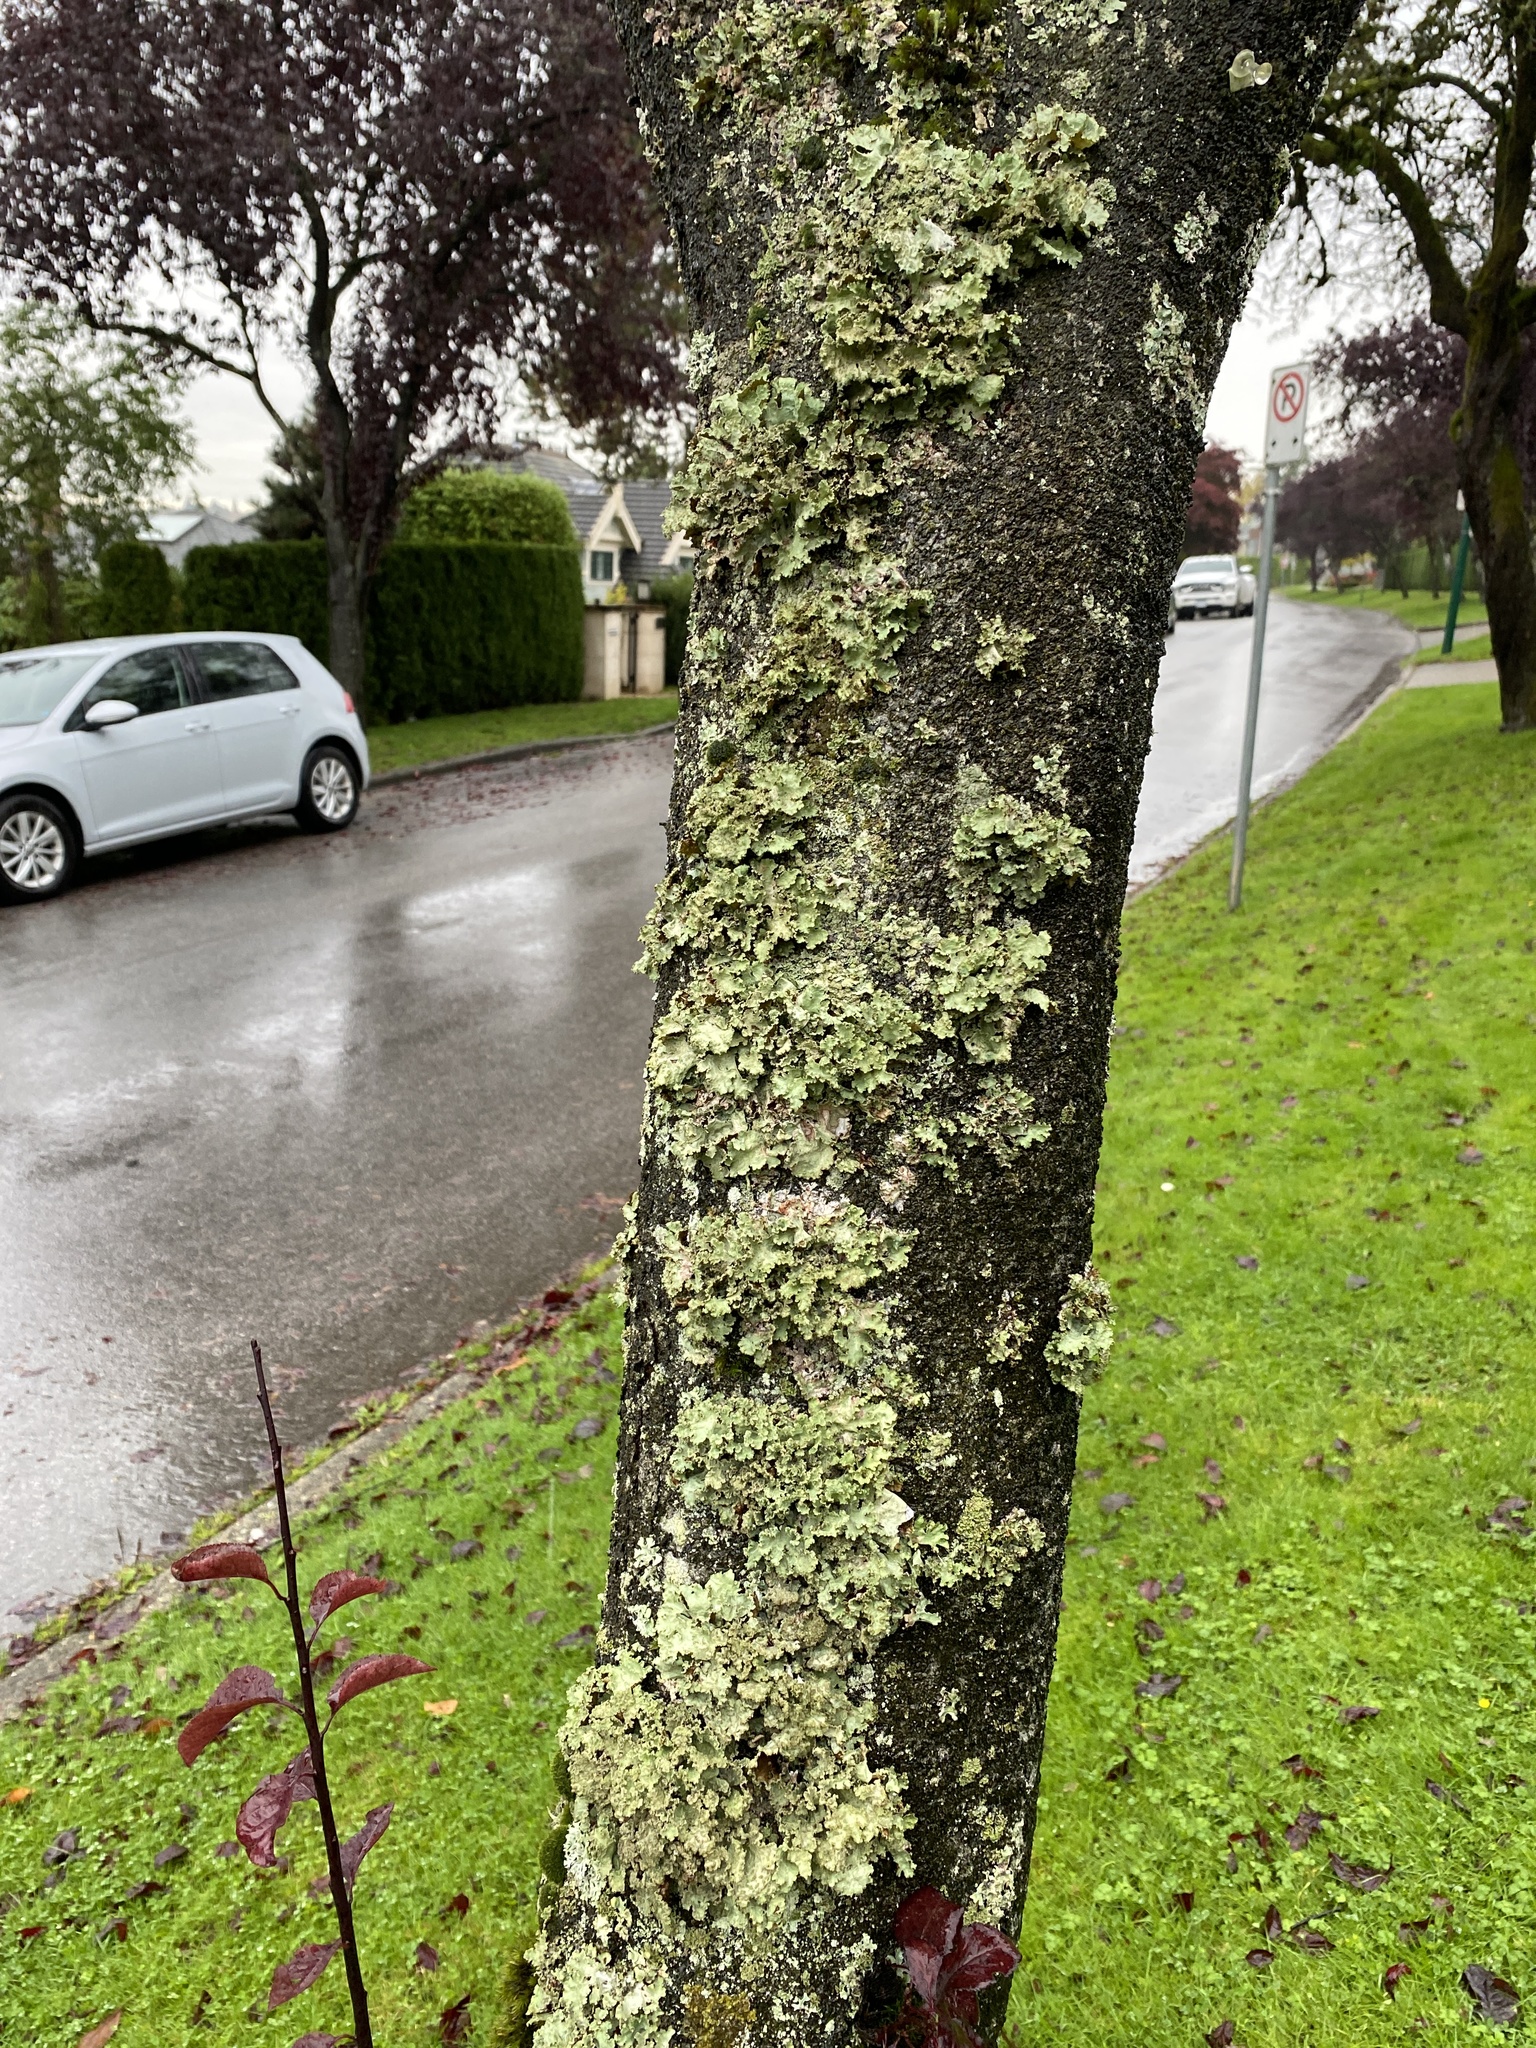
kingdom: Fungi
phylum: Ascomycota
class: Lecanoromycetes
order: Lecanorales
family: Parmeliaceae
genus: Platismatia
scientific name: Platismatia glauca
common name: Varied rag lichen
